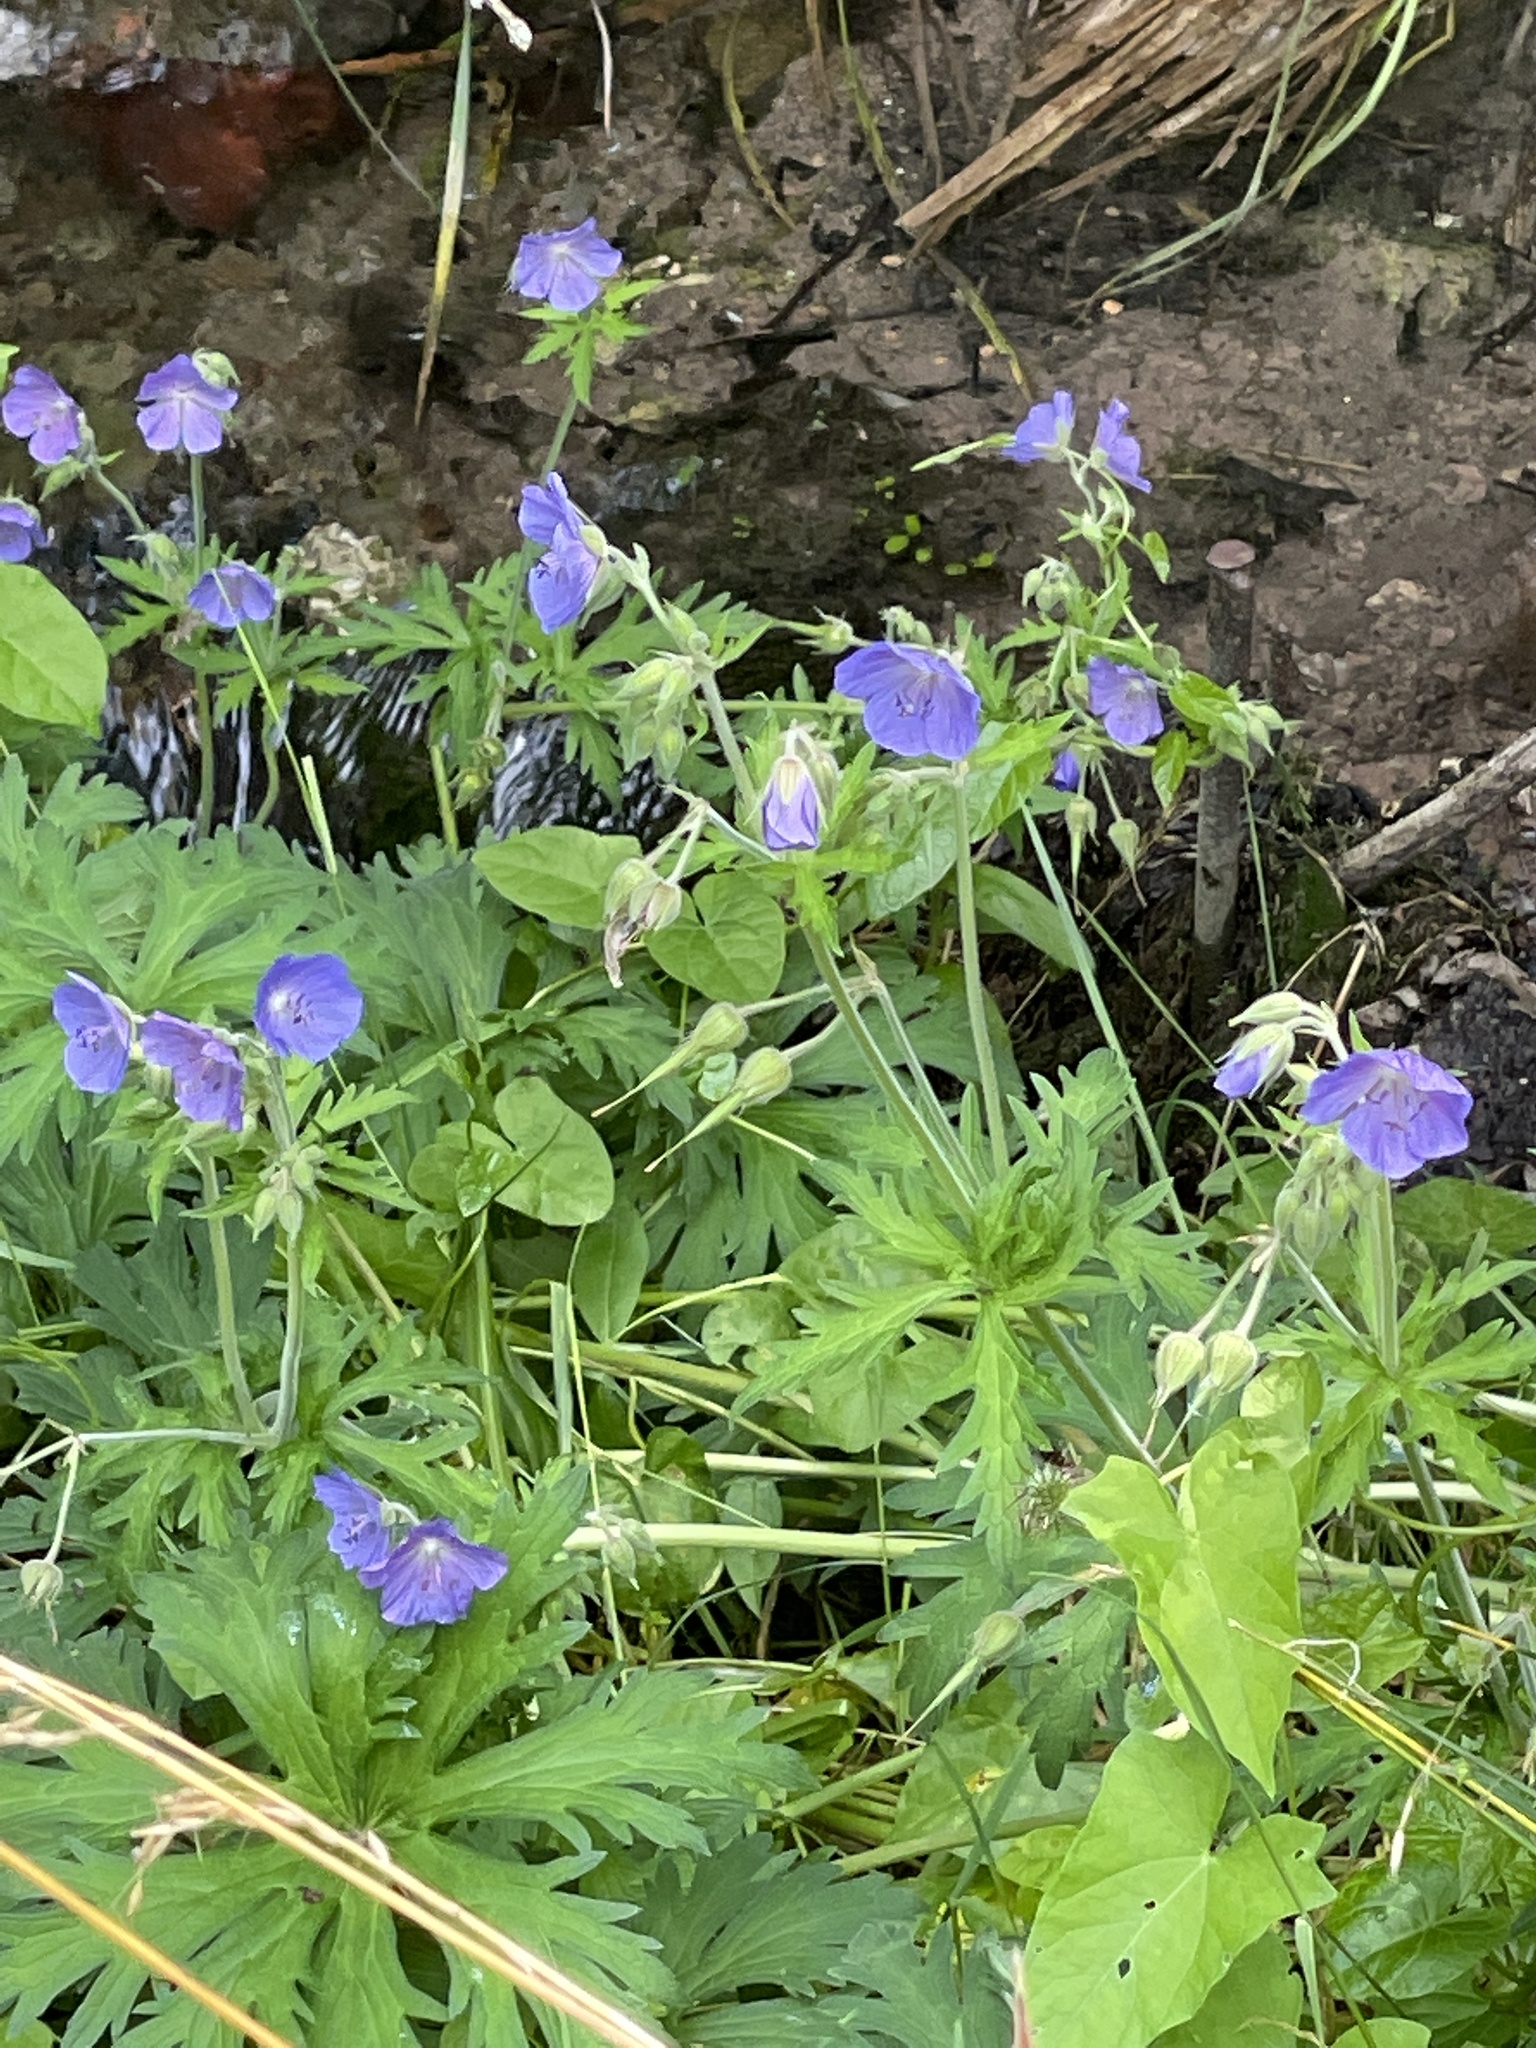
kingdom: Plantae
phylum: Tracheophyta
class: Magnoliopsida
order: Geraniales
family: Geraniaceae
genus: Geranium
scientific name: Geranium pratense
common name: Meadow crane's-bill
